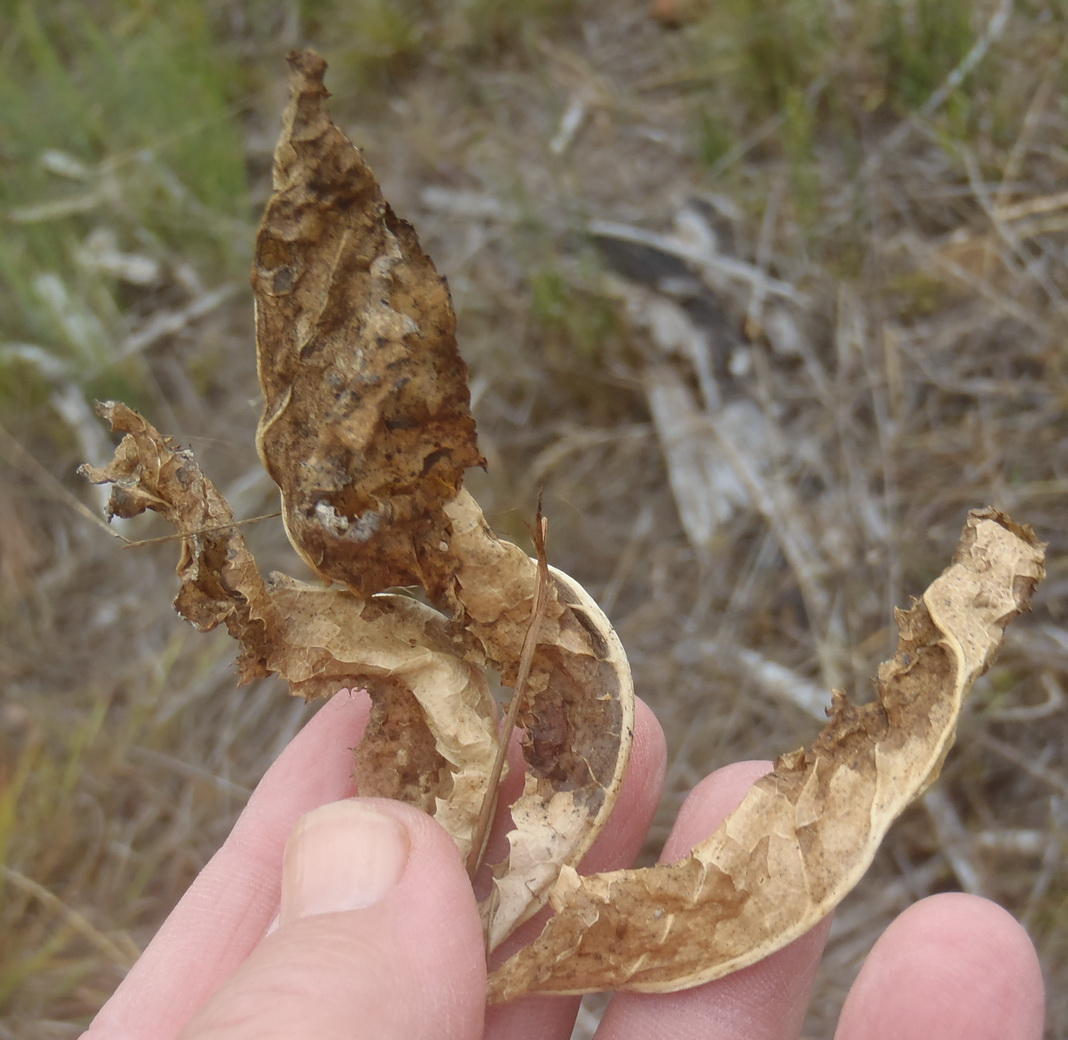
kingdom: Plantae
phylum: Tracheophyta
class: Magnoliopsida
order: Apiales
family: Apiaceae
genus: Lichtensteinia
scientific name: Lichtensteinia trifida
